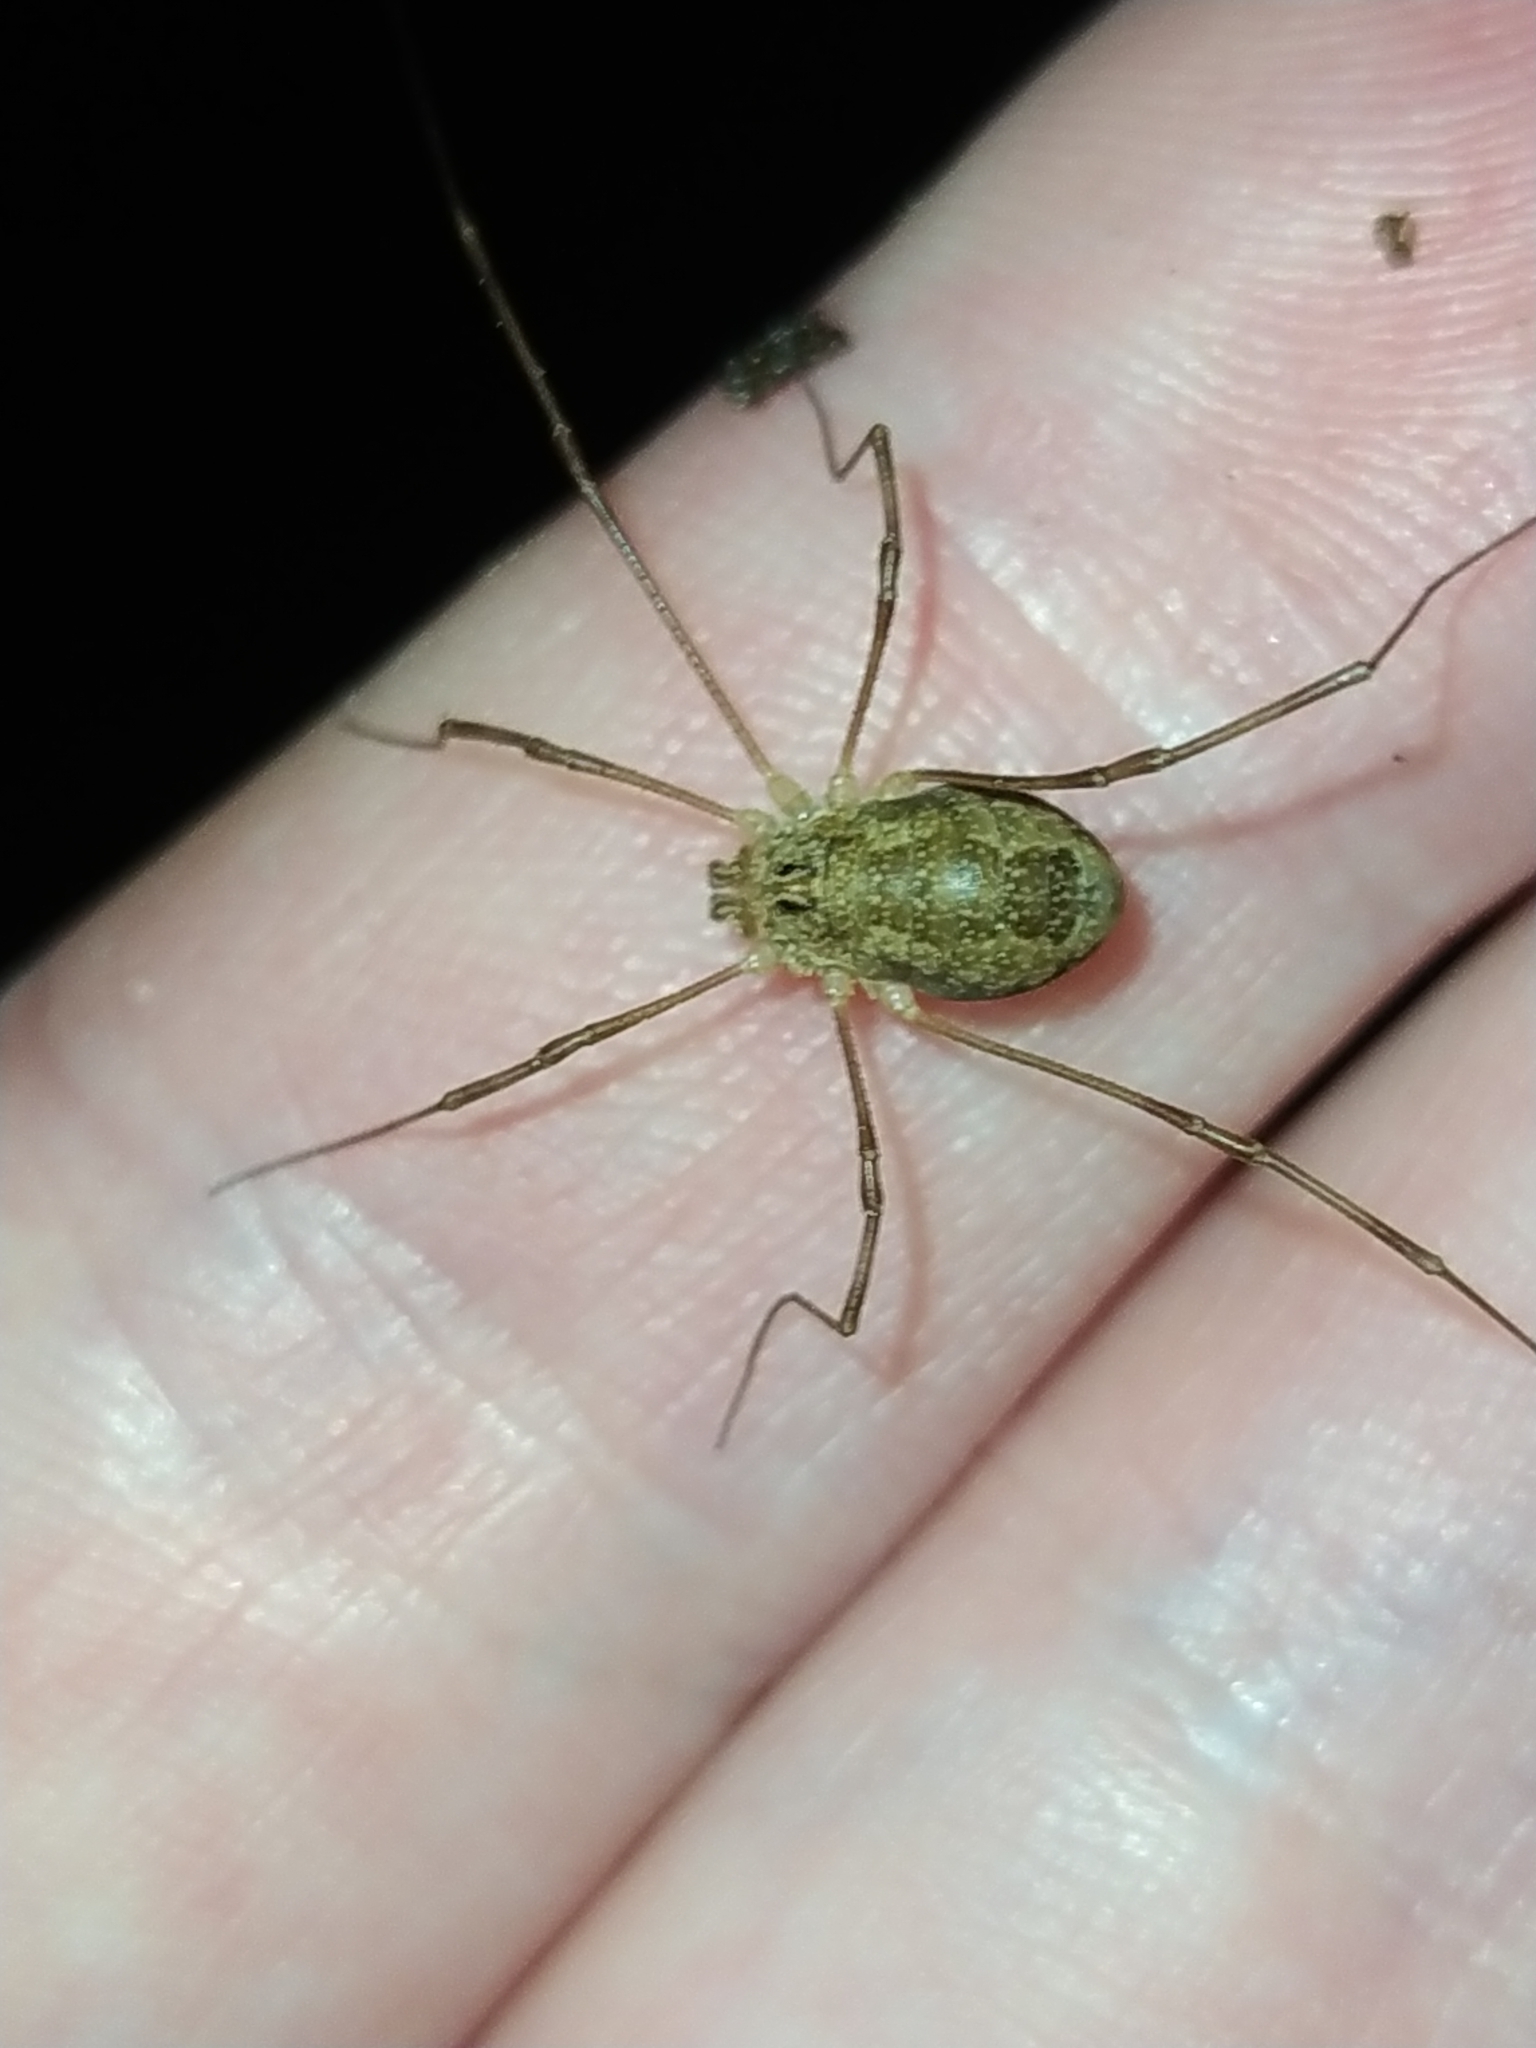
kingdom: Animalia
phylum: Arthropoda
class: Arachnida
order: Opiliones
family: Phalangiidae
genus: Rilaena
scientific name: Rilaena triangularis
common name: Spring harvestman
